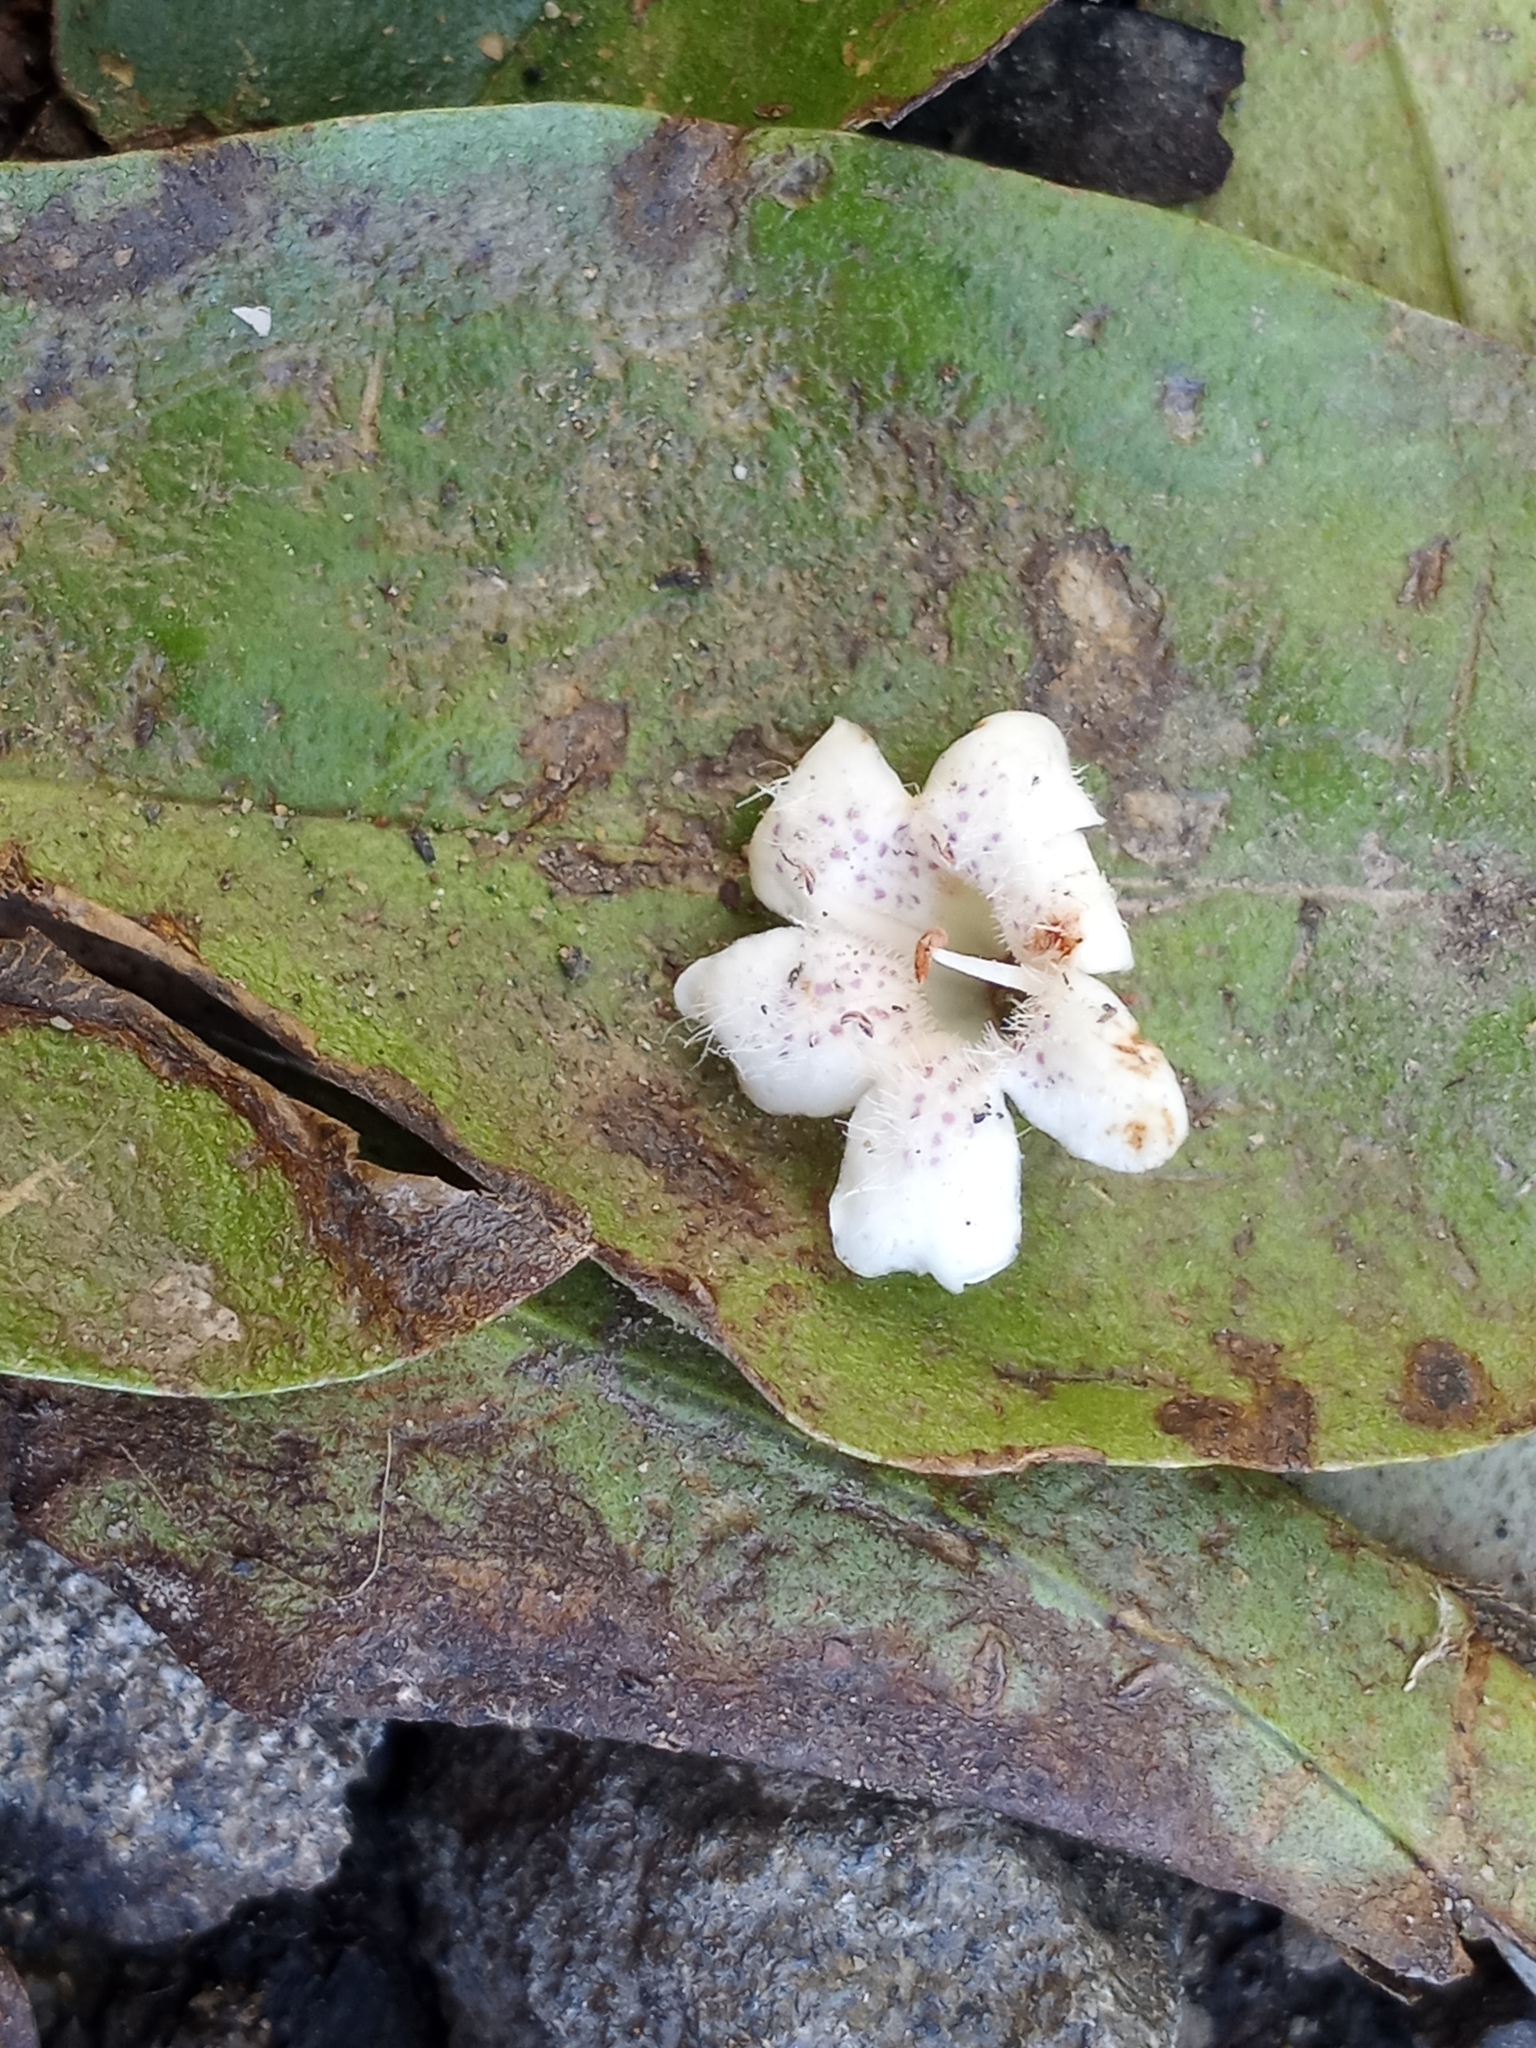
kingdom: Plantae
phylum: Tracheophyta
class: Magnoliopsida
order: Lamiales
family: Scrophulariaceae
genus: Myoporum
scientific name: Myoporum laetum
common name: Ngaio tree
